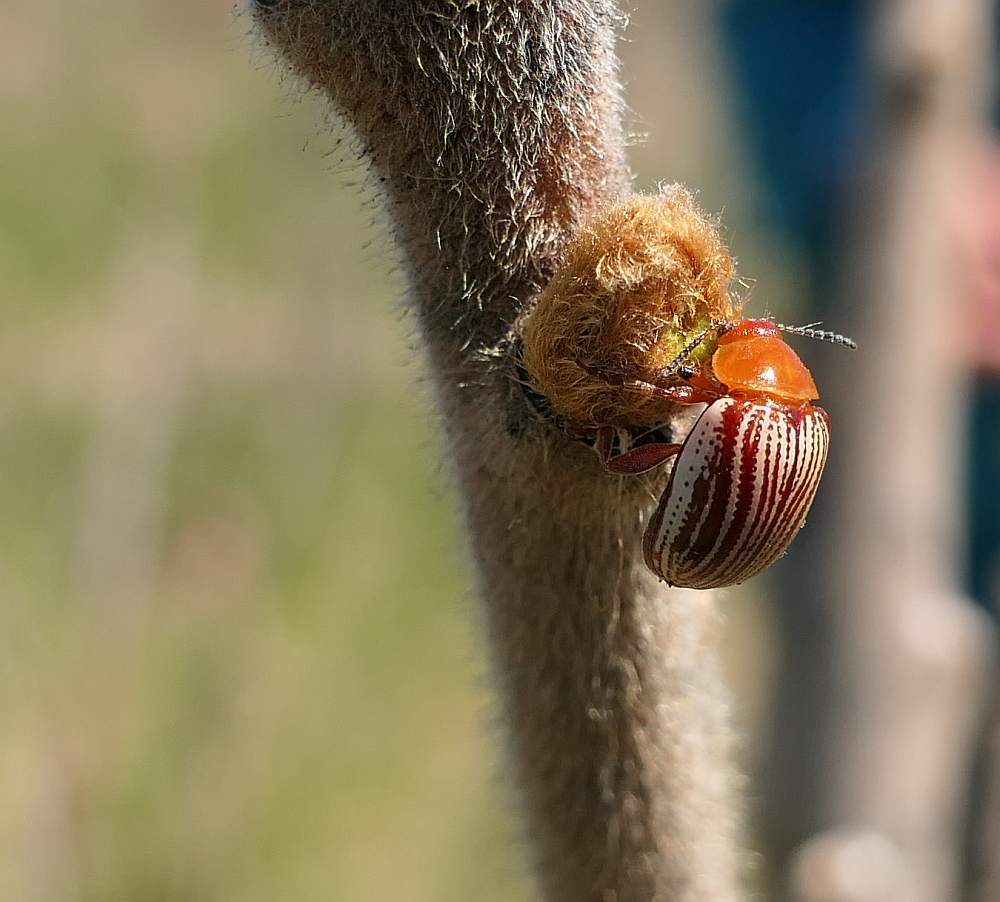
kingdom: Animalia
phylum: Arthropoda
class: Insecta
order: Coleoptera
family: Chrysomelidae
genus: Blepharida
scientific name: Blepharida rhois
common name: Sumac flea beetle
